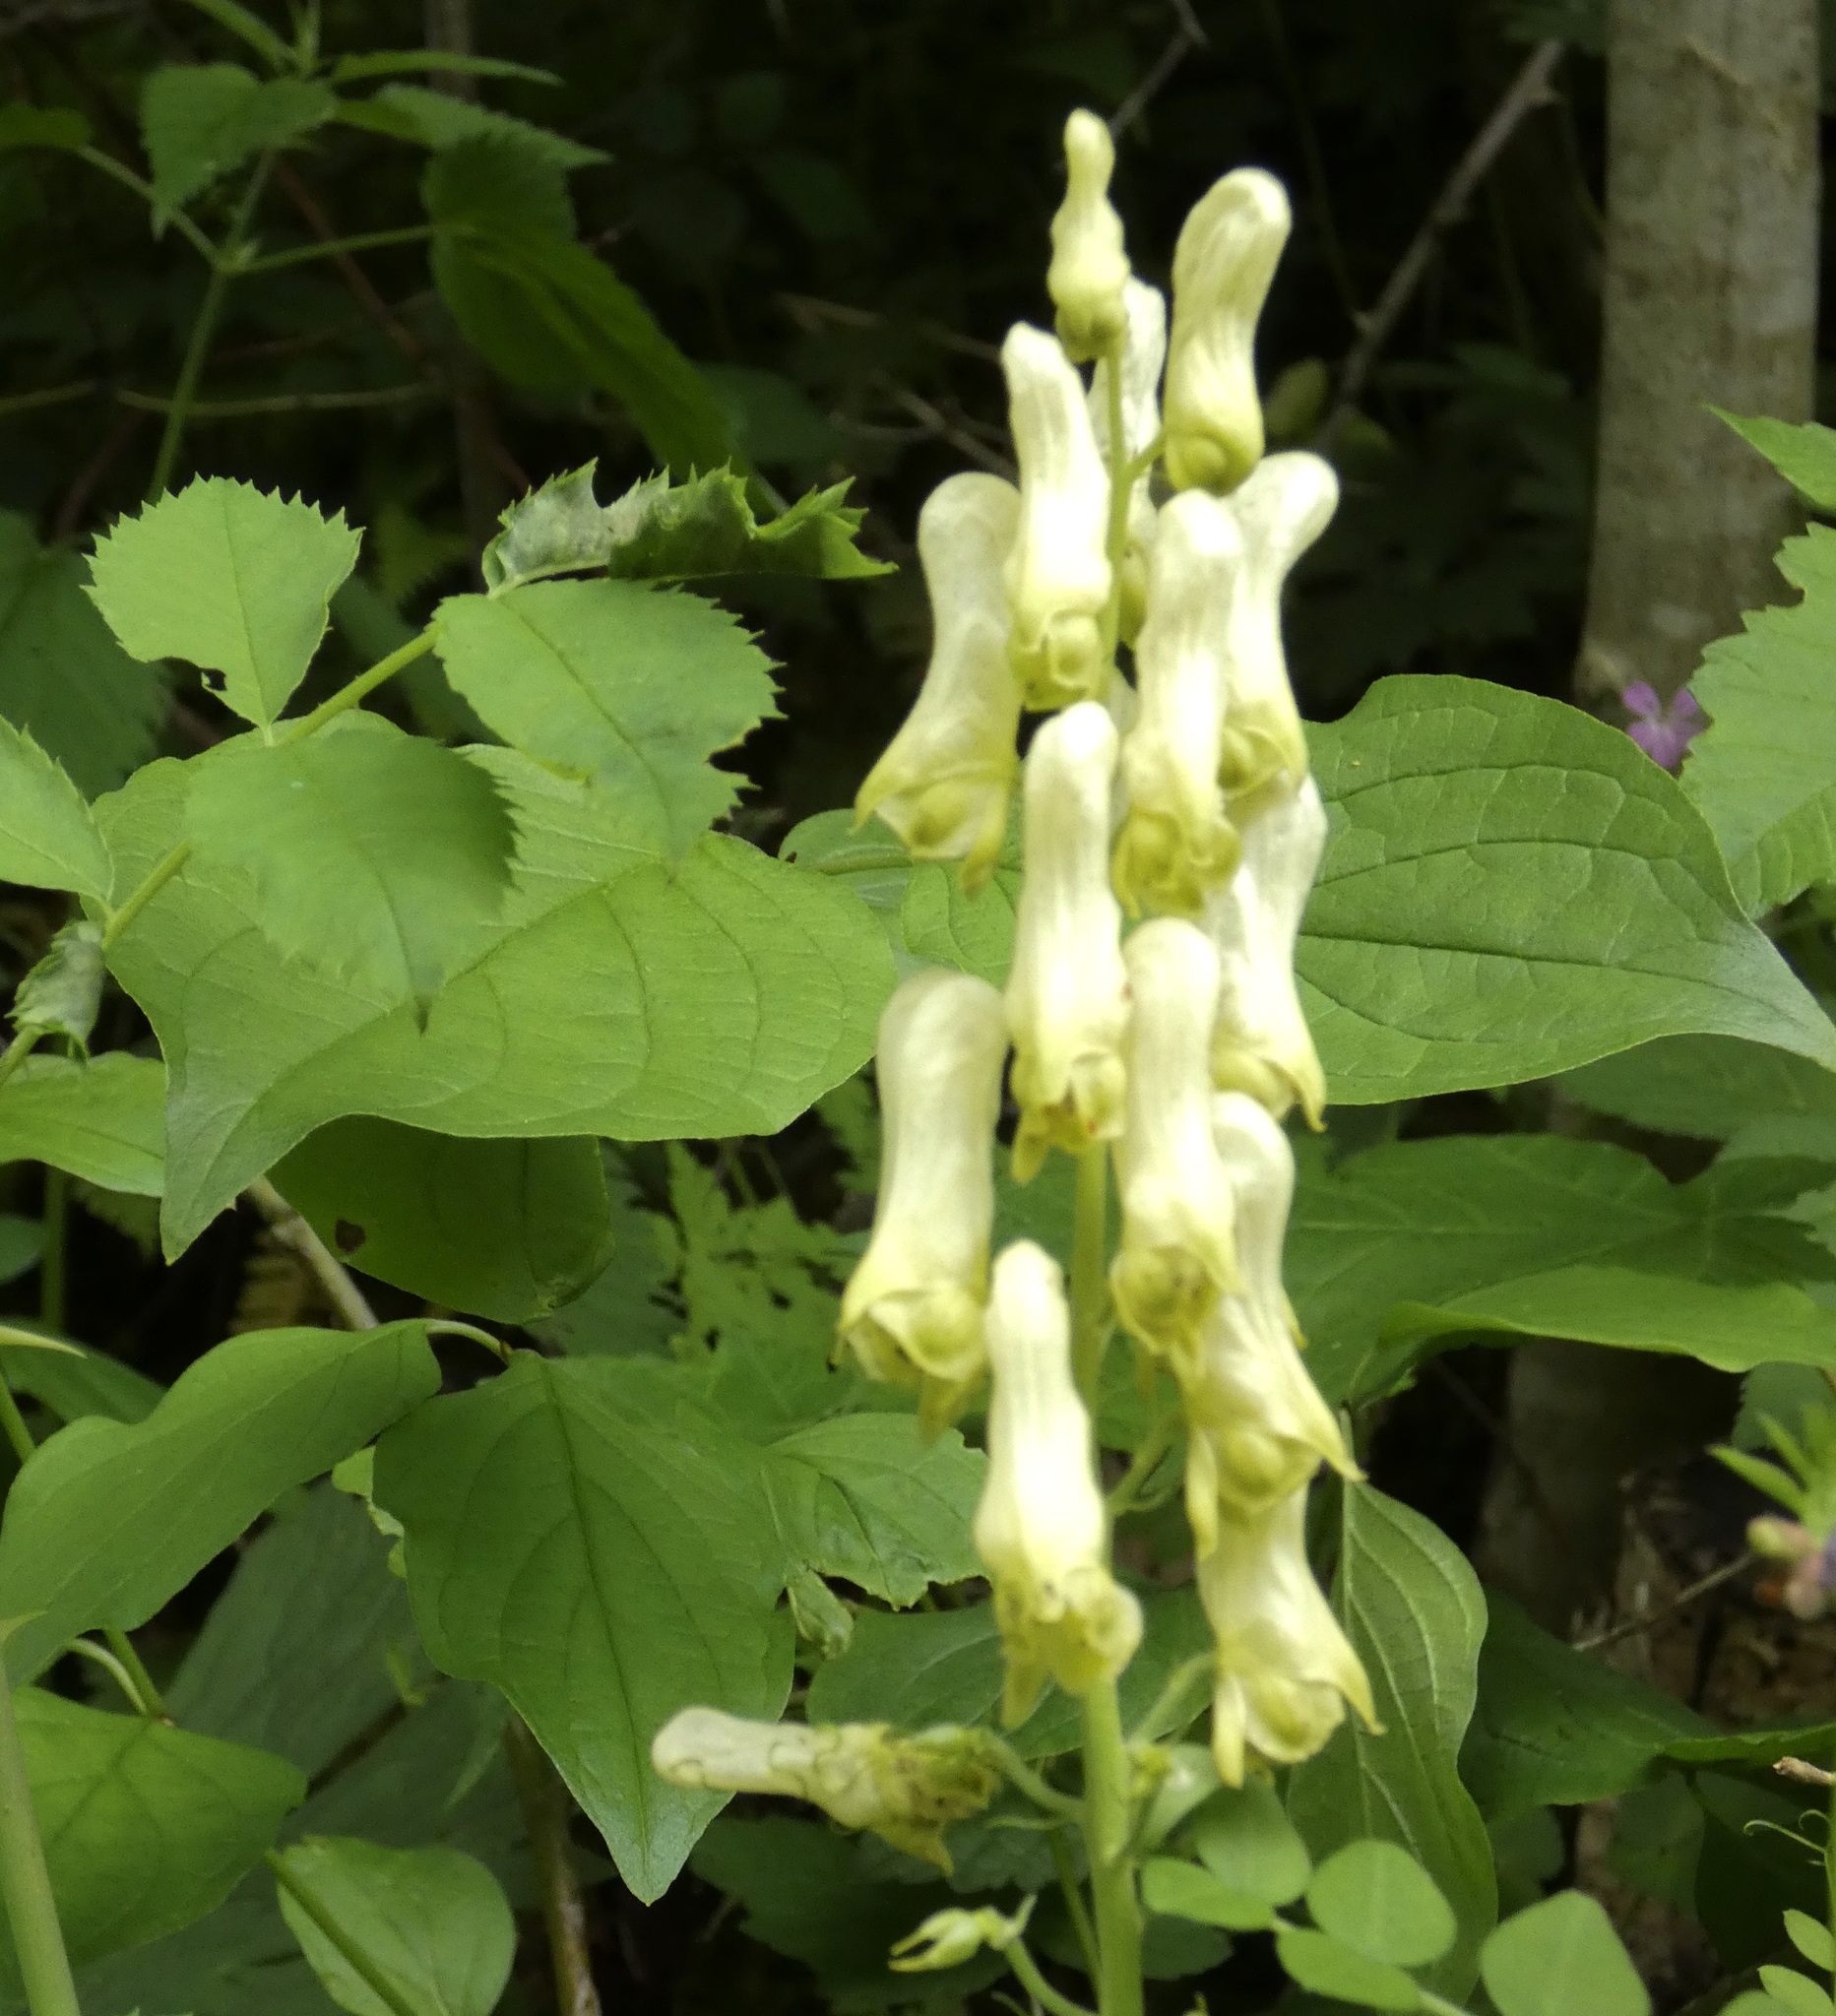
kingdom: Plantae
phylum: Tracheophyta
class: Magnoliopsida
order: Ranunculales
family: Ranunculaceae
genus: Aconitum
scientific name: Aconitum lycoctonum
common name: Wolf's-bane
